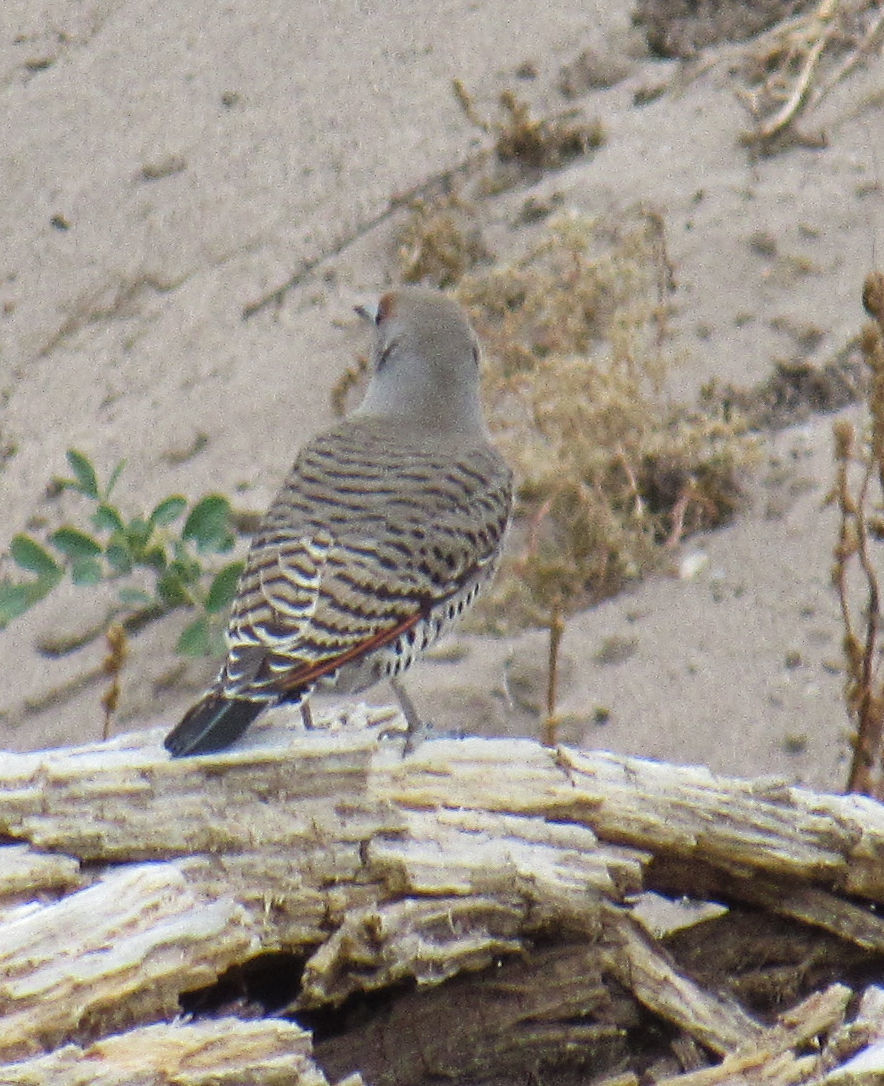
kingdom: Animalia
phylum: Chordata
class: Aves
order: Piciformes
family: Picidae
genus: Colaptes
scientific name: Colaptes auratus
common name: Northern flicker
